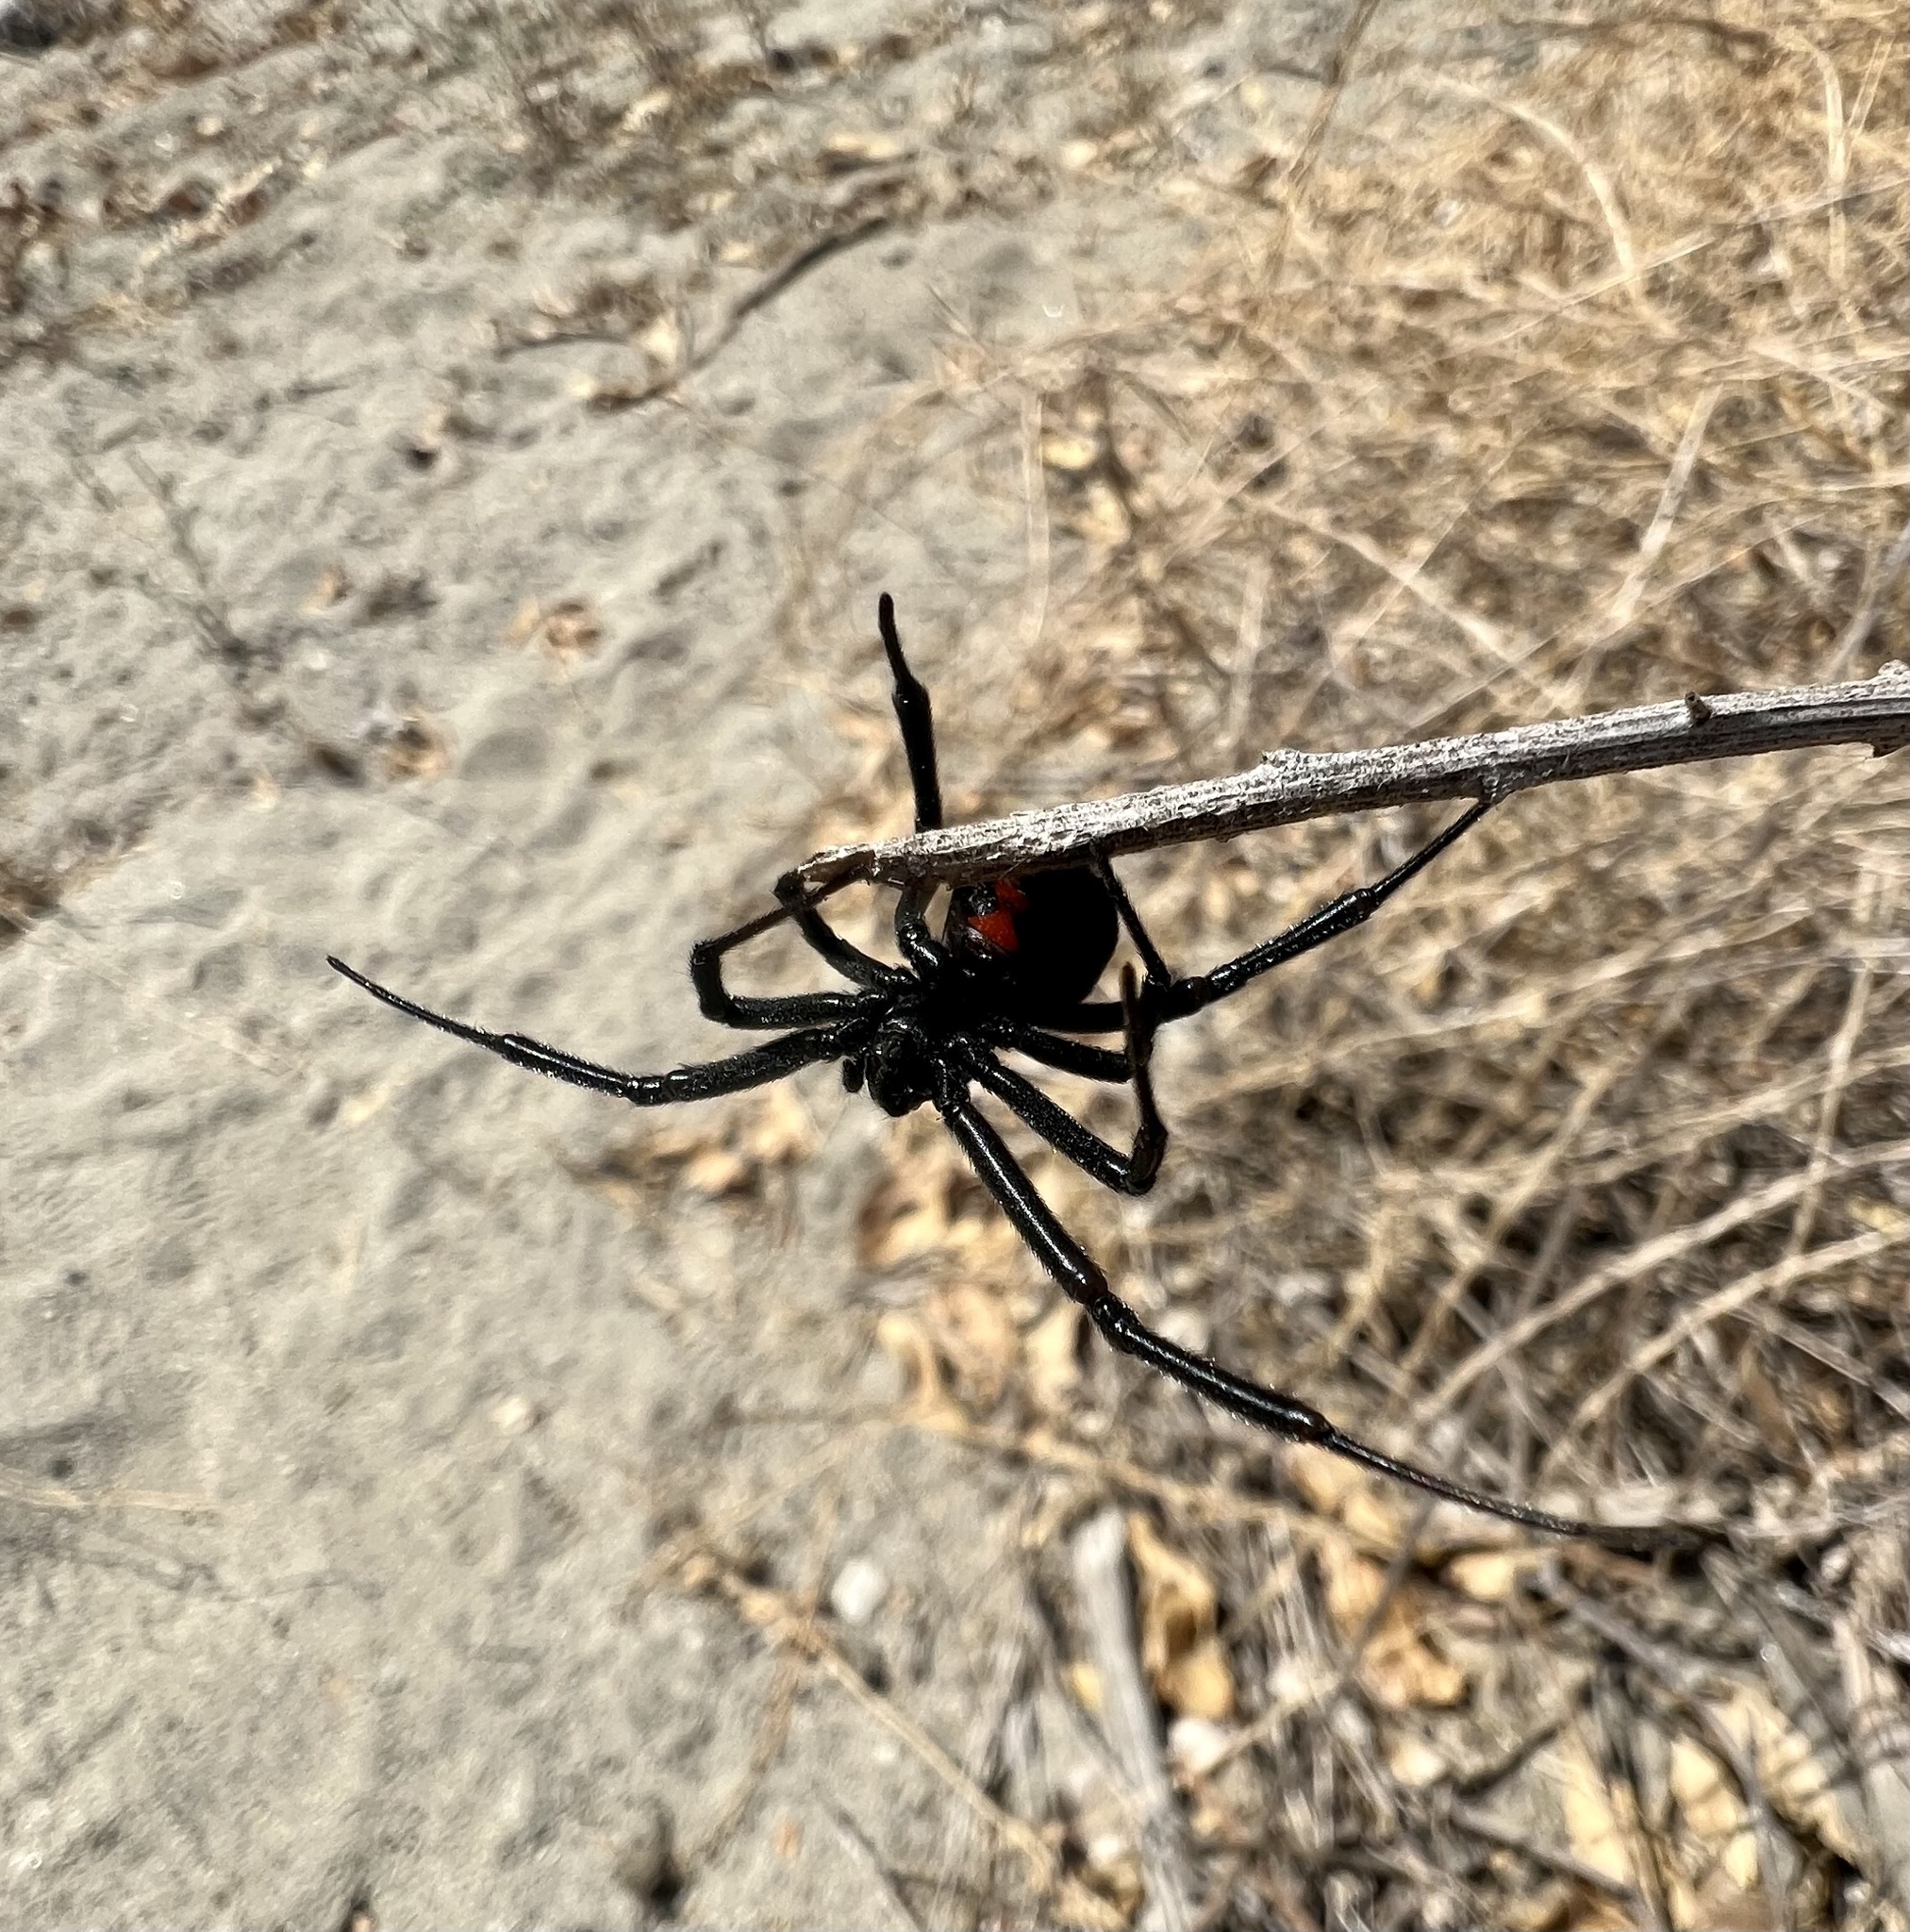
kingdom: Animalia
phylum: Arthropoda
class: Arachnida
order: Araneae
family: Theridiidae
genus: Latrodectus
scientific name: Latrodectus hesperus
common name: Western black widow
